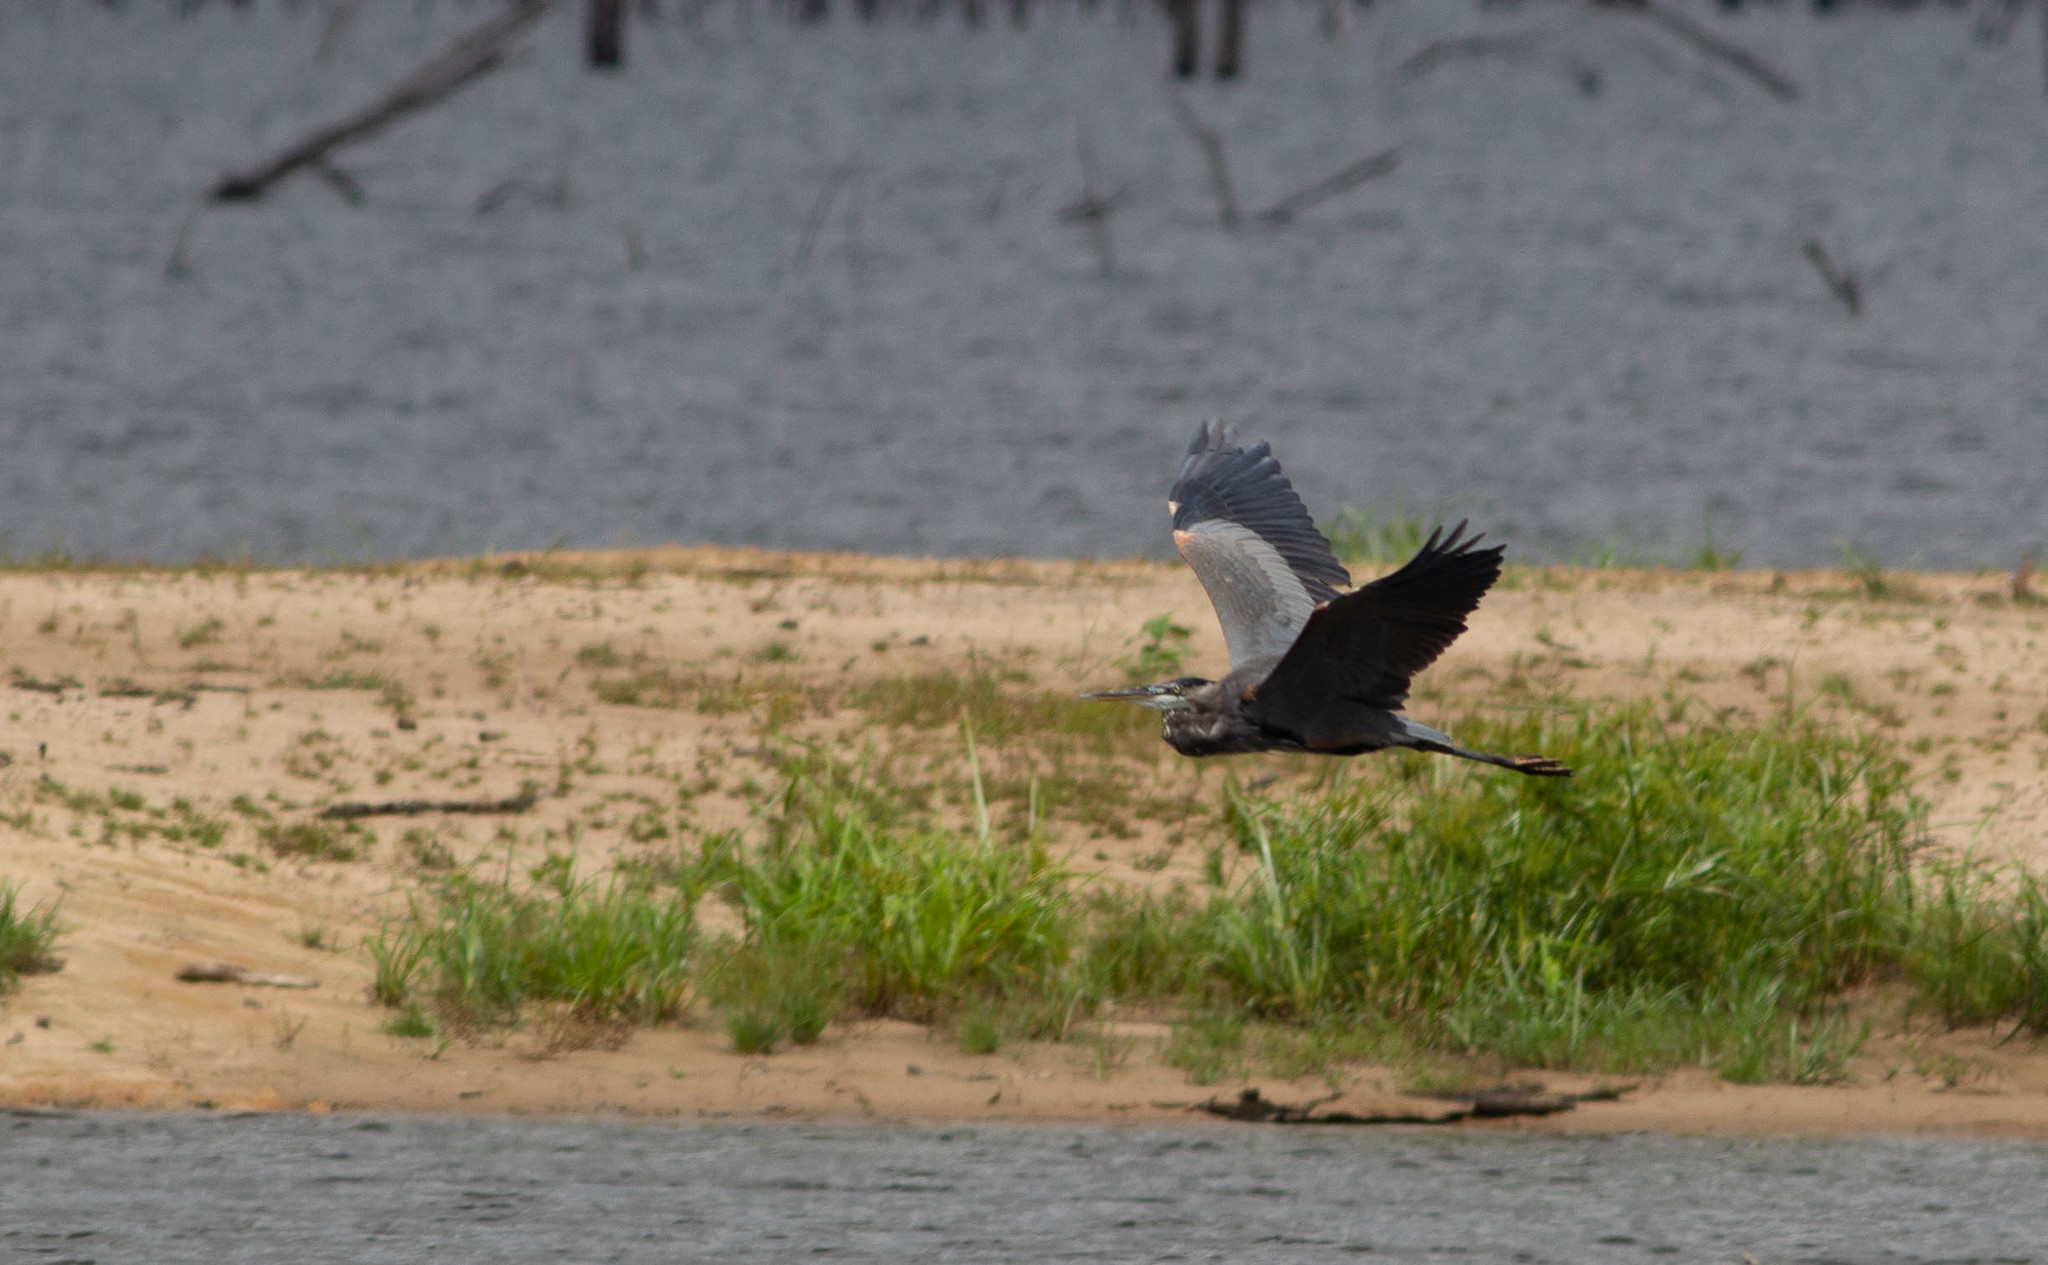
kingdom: Animalia
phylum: Chordata
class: Aves
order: Pelecaniformes
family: Ardeidae
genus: Ardea
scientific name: Ardea herodias
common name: Great blue heron
